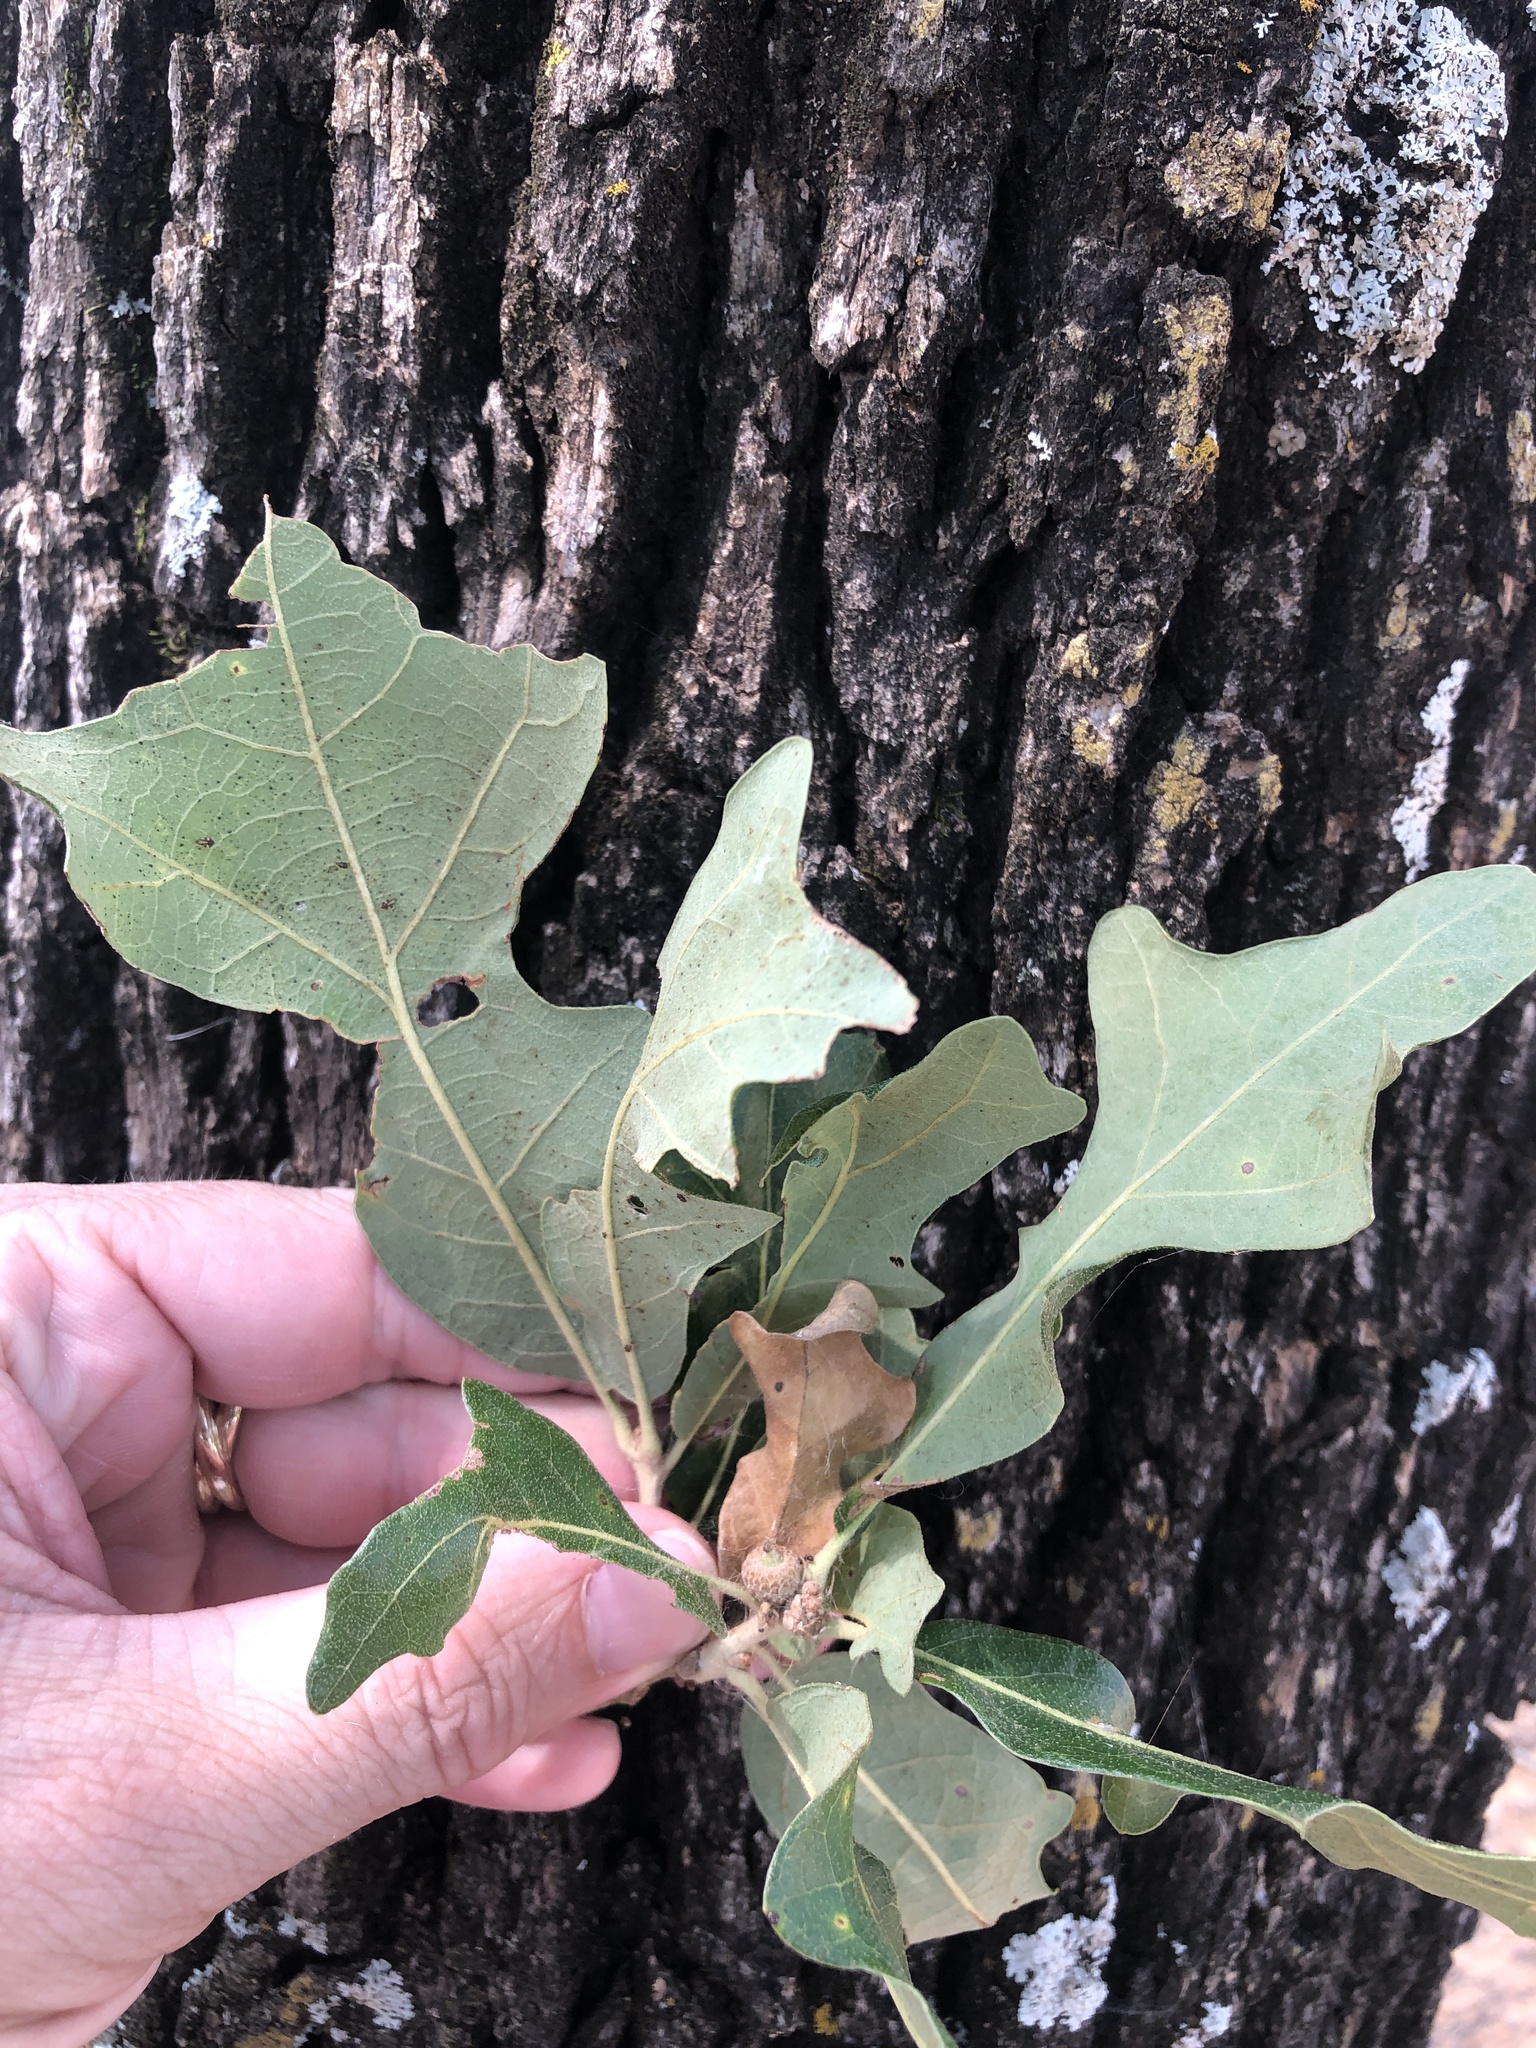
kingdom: Plantae
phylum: Tracheophyta
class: Magnoliopsida
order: Fagales
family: Fagaceae
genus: Quercus
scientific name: Quercus stellata
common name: Post oak
